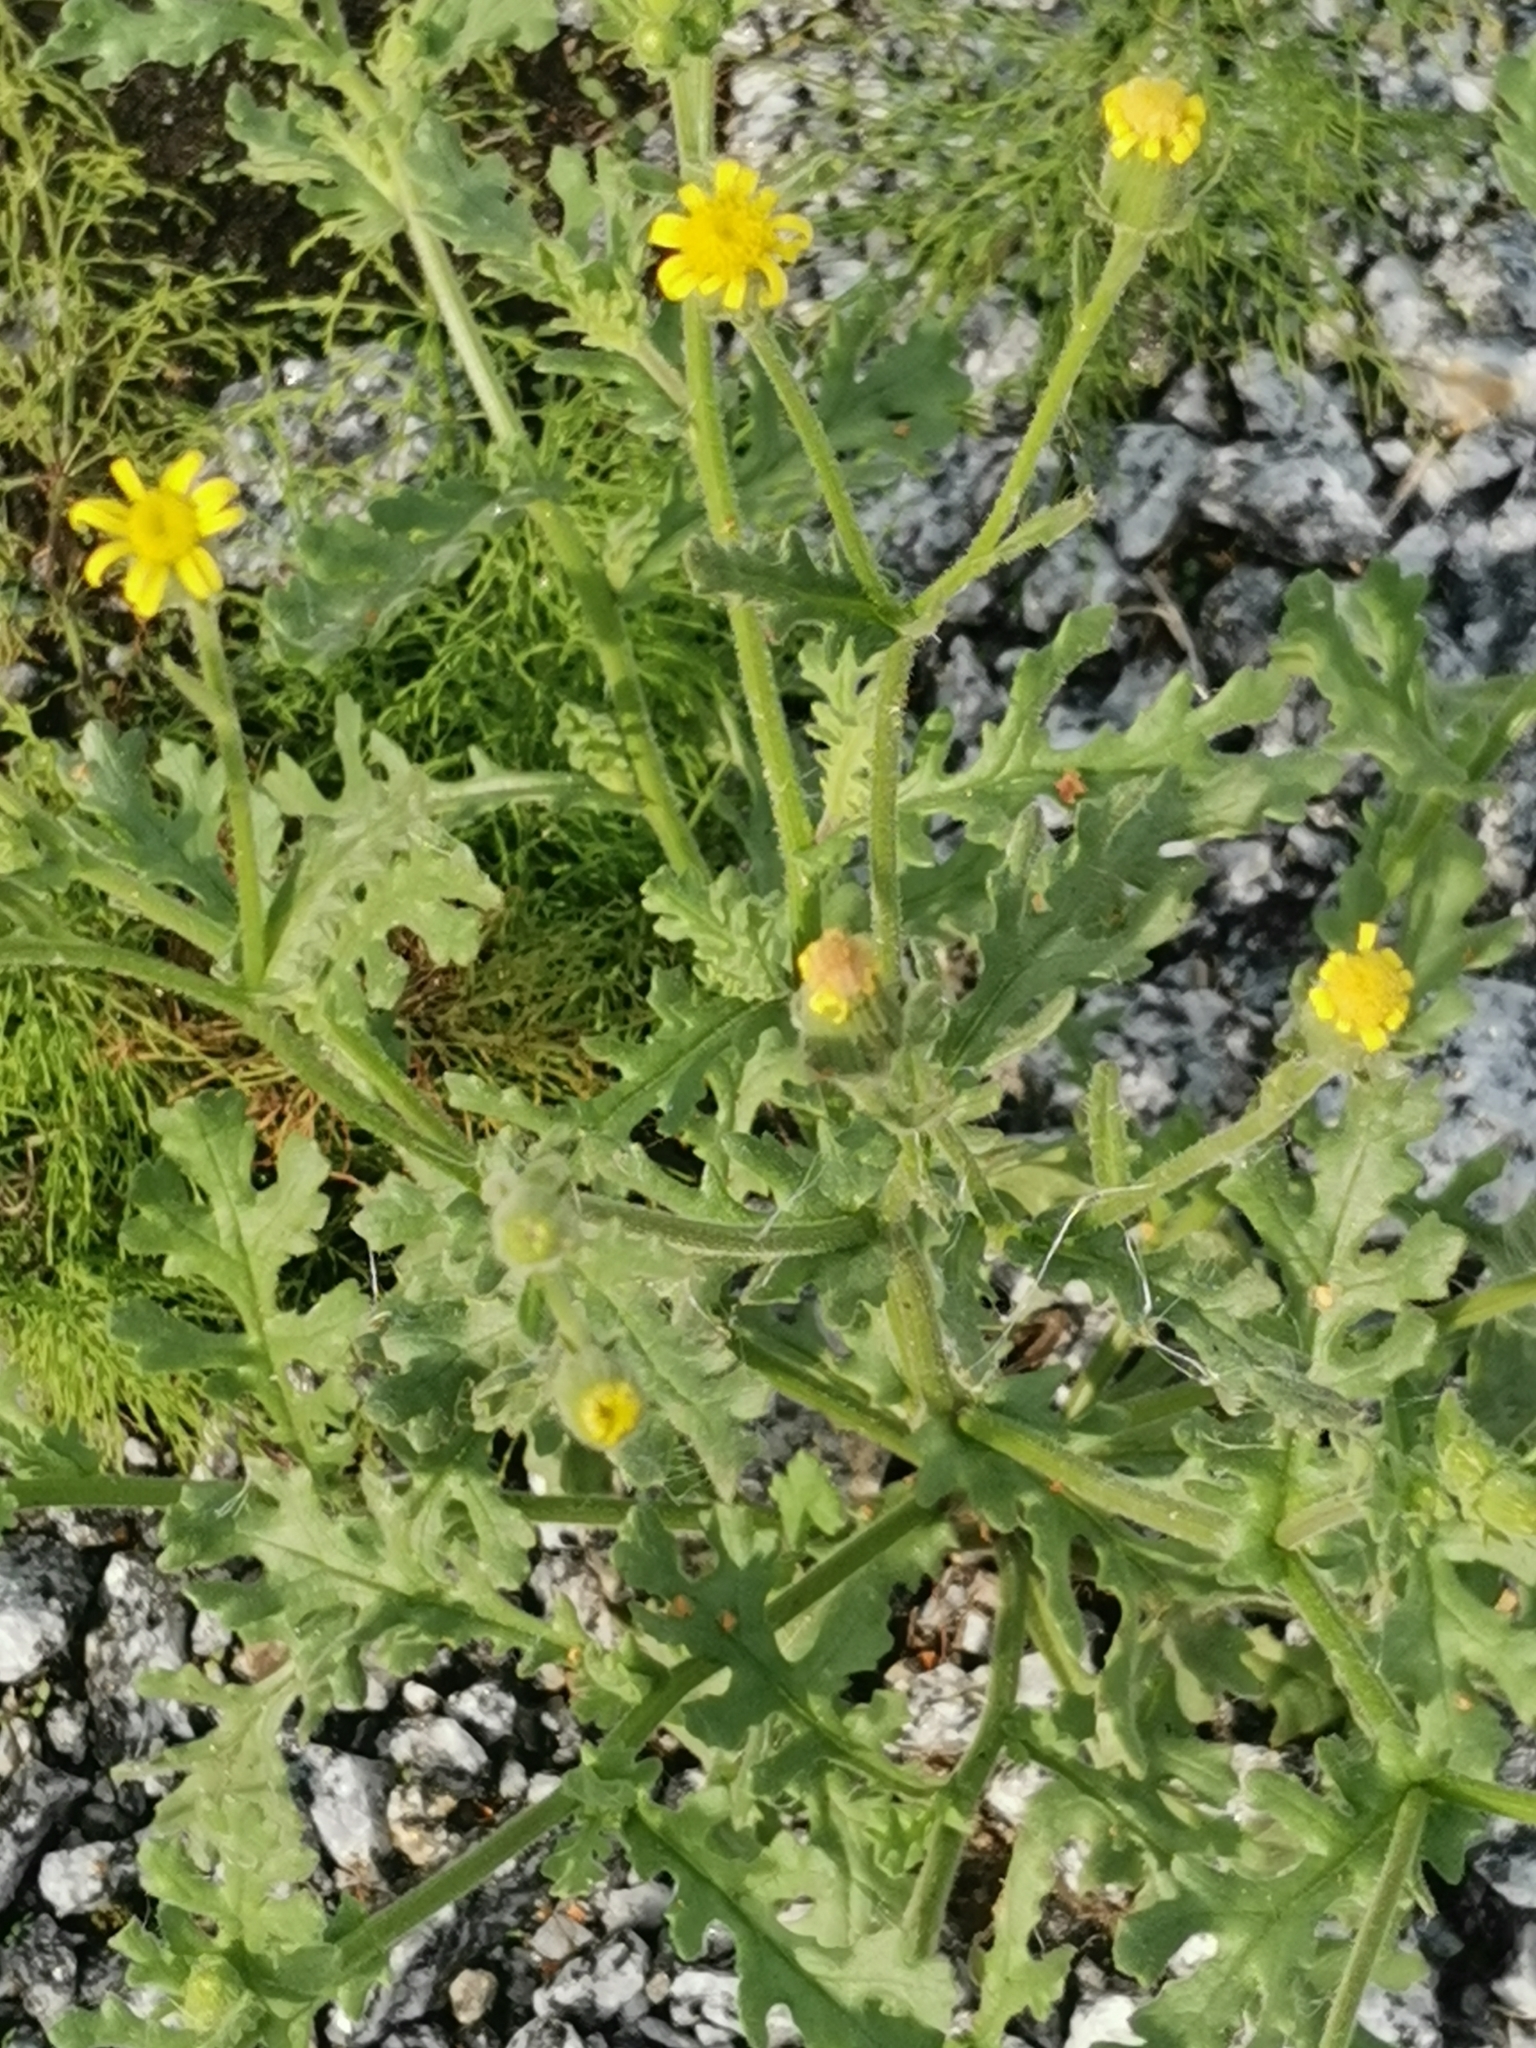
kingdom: Plantae
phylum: Tracheophyta
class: Magnoliopsida
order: Asterales
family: Asteraceae
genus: Senecio
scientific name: Senecio viscosus
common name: Sticky groundsel
